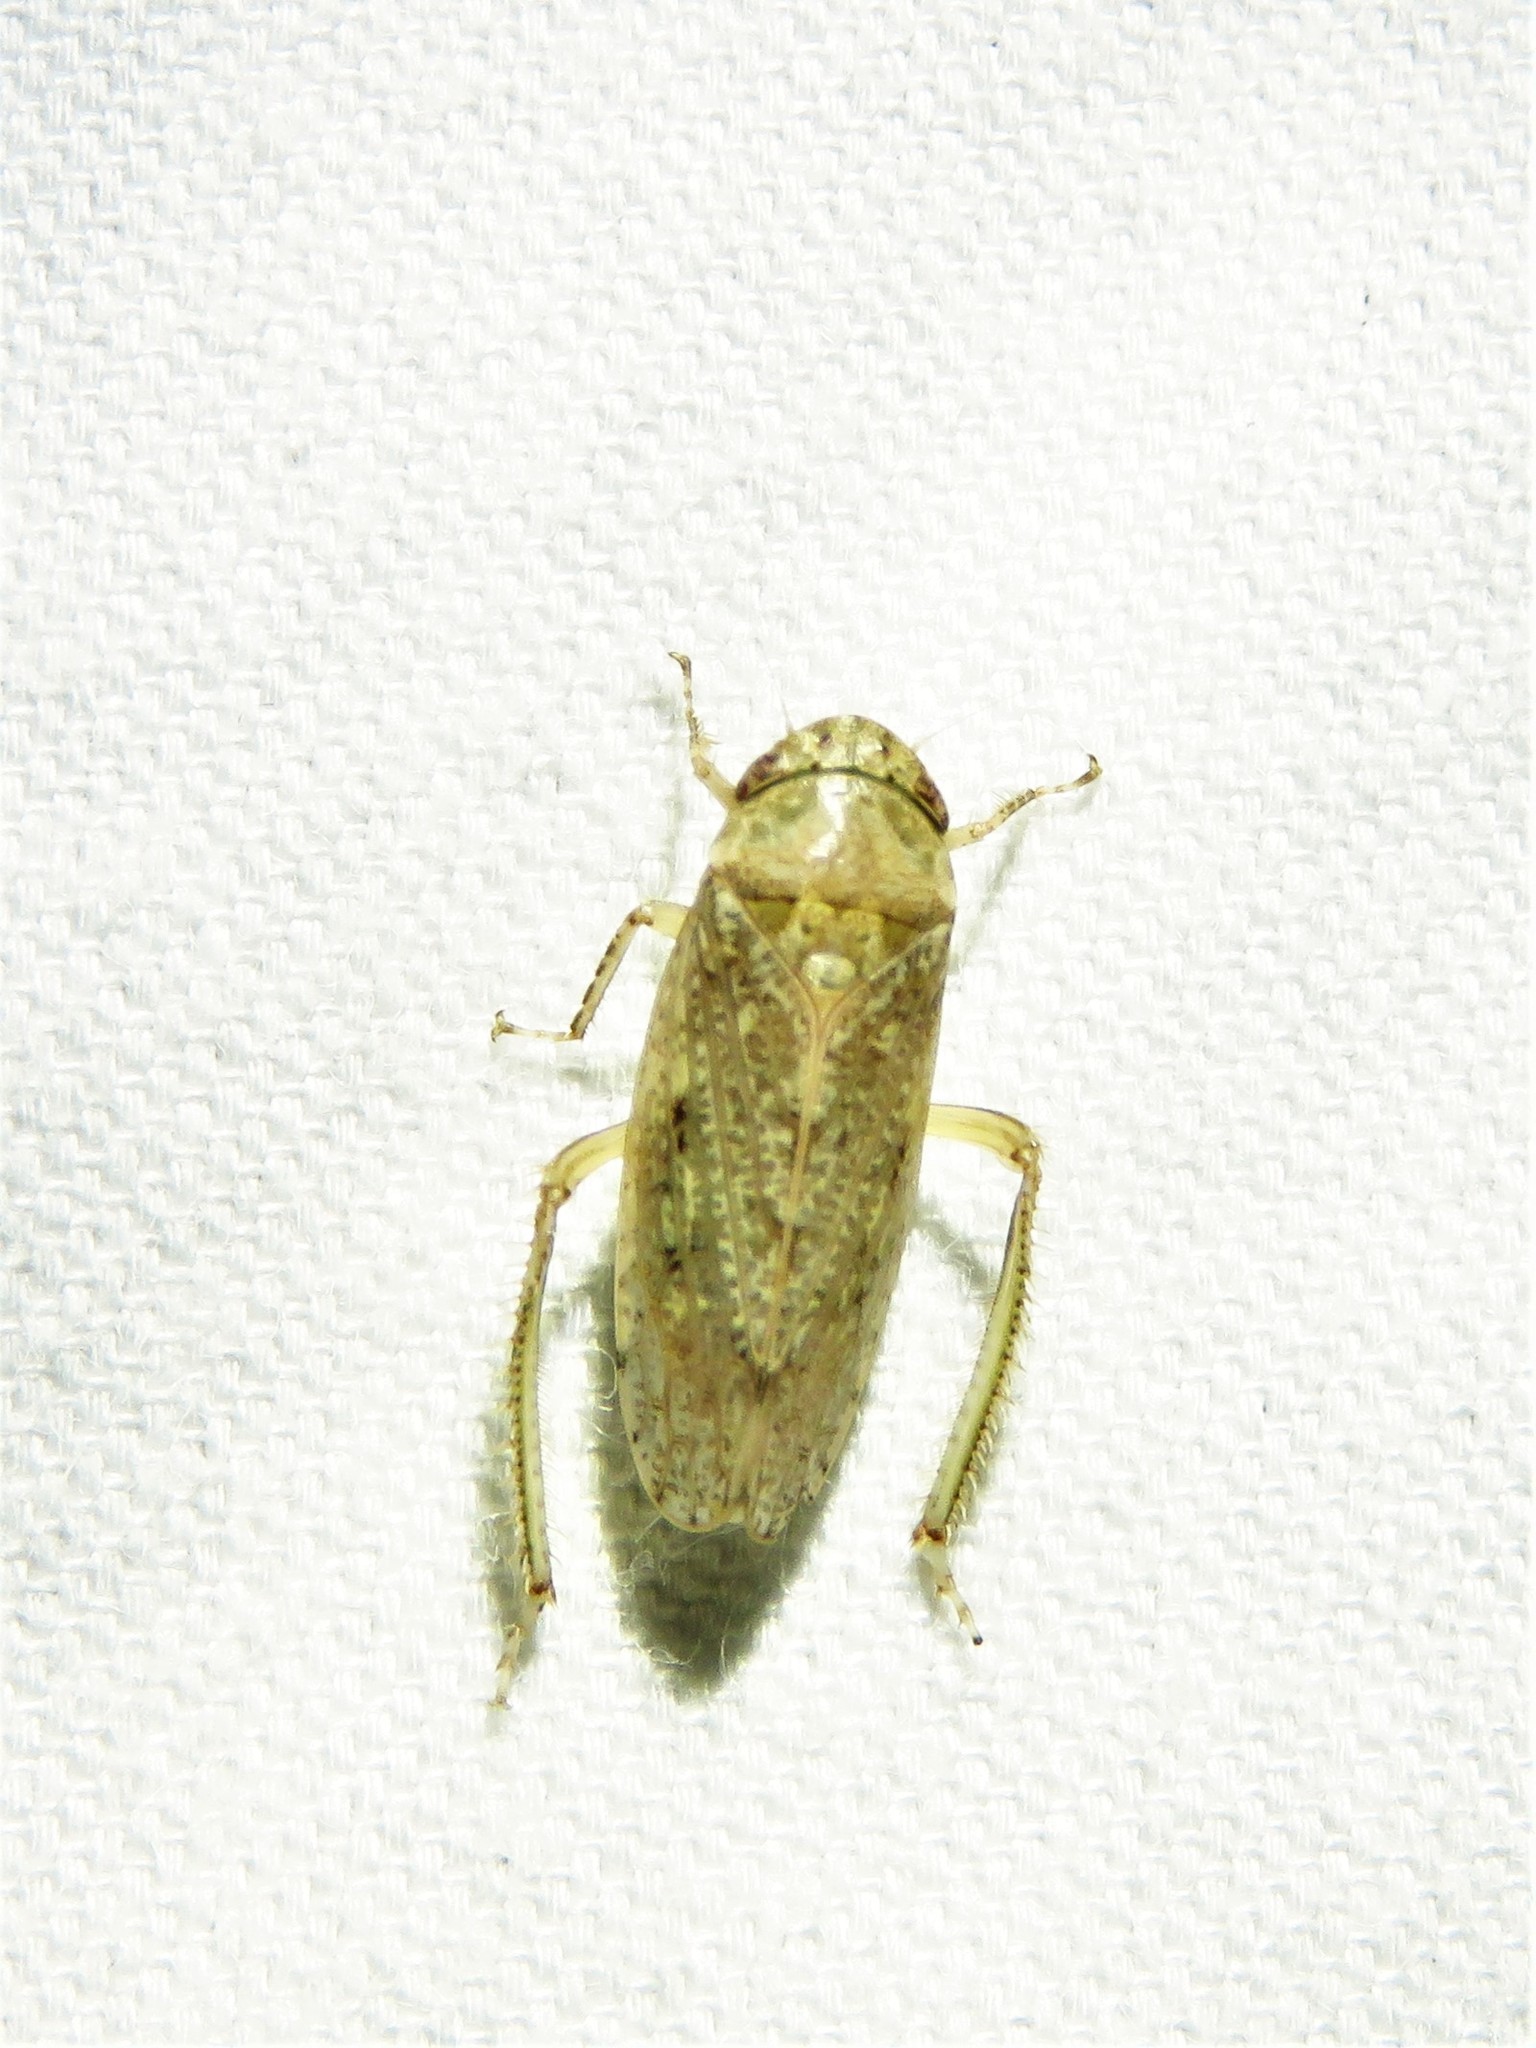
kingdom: Animalia
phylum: Arthropoda
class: Insecta
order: Hemiptera
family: Cicadellidae
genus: Curtara
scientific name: Curtara insularis
